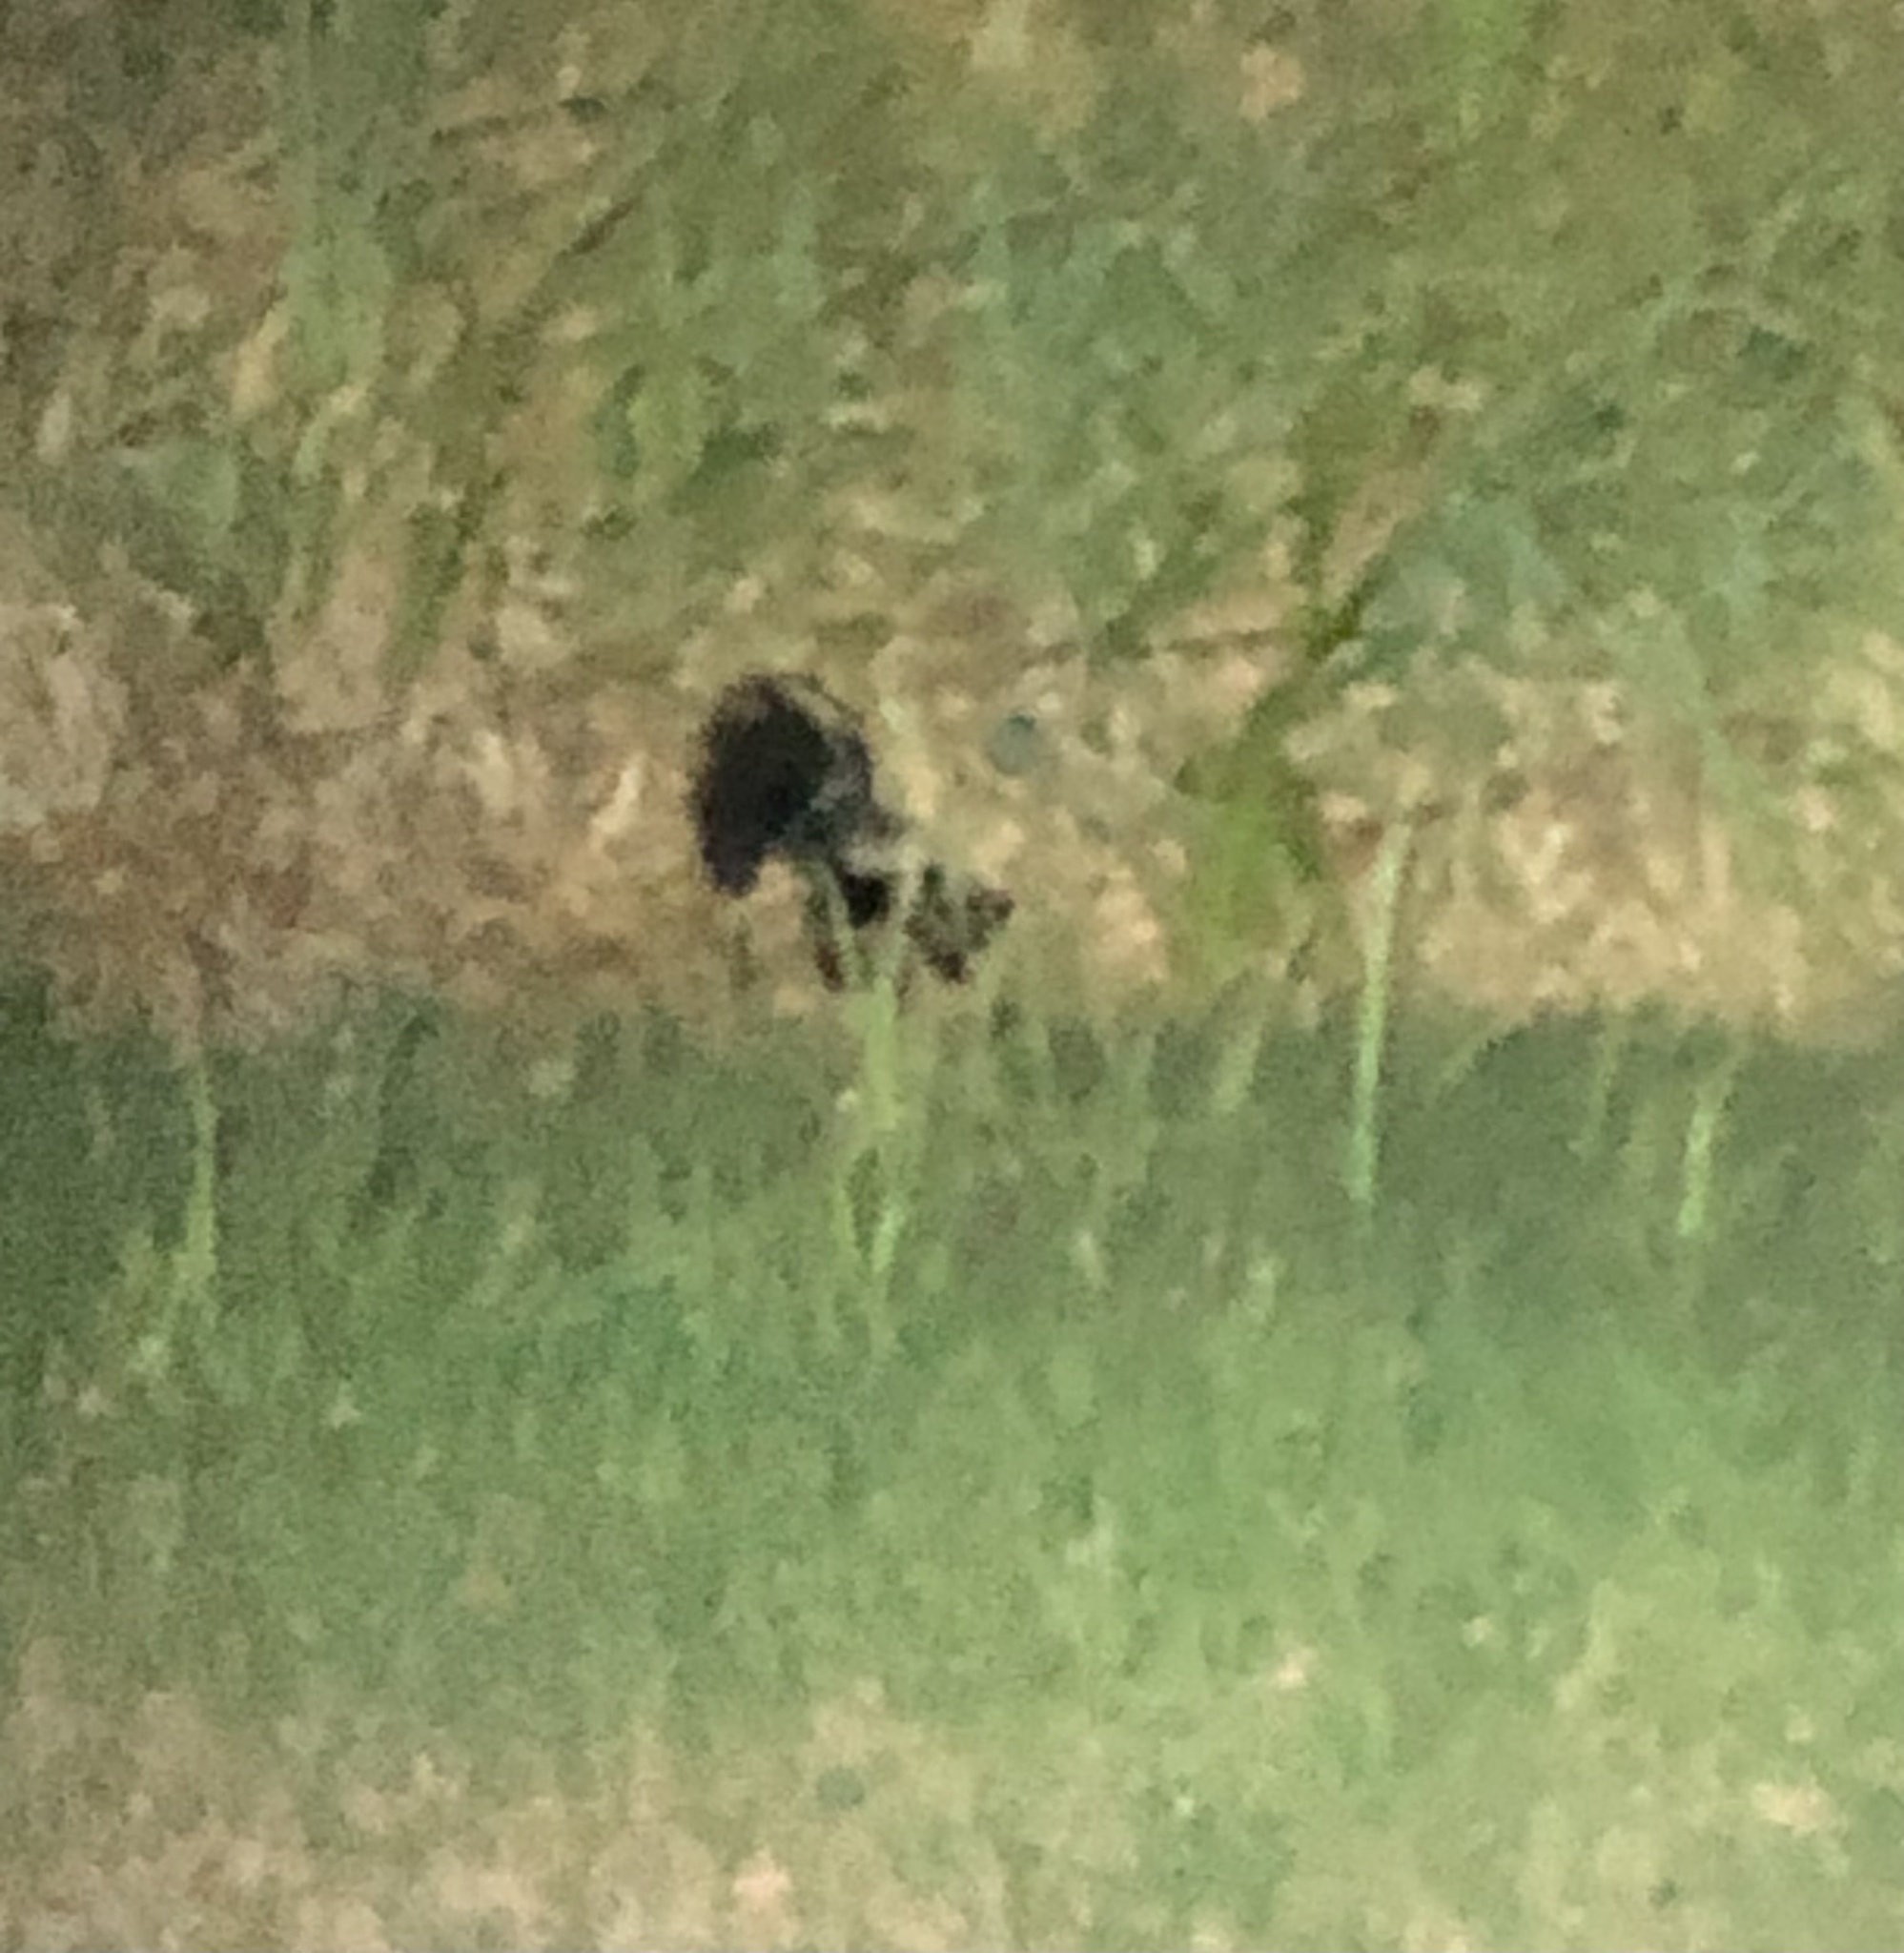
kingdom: Animalia
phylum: Chordata
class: Mammalia
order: Carnivora
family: Mephitidae
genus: Mephitis
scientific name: Mephitis mephitis
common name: Striped skunk
